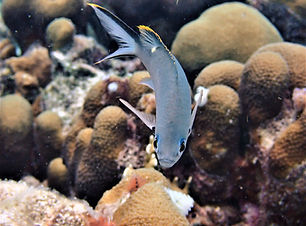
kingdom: Animalia
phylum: Chordata
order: Perciformes
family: Pomacentridae
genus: Chromis
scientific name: Chromis multilineata
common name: Brown chromis
